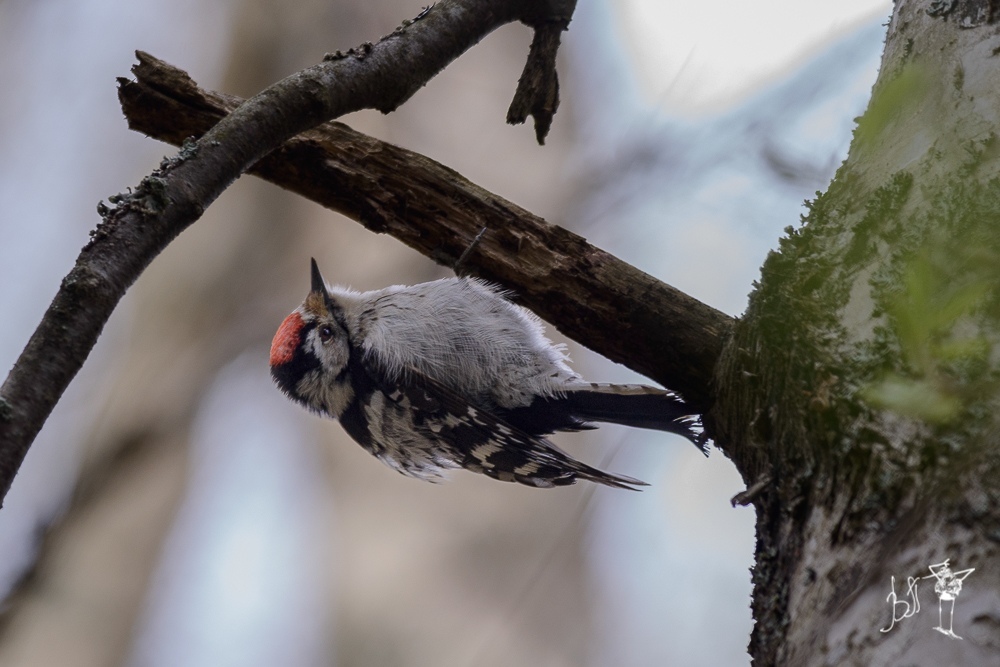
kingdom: Animalia
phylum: Chordata
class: Aves
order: Piciformes
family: Picidae
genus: Dryobates
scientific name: Dryobates minor
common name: Lesser spotted woodpecker
